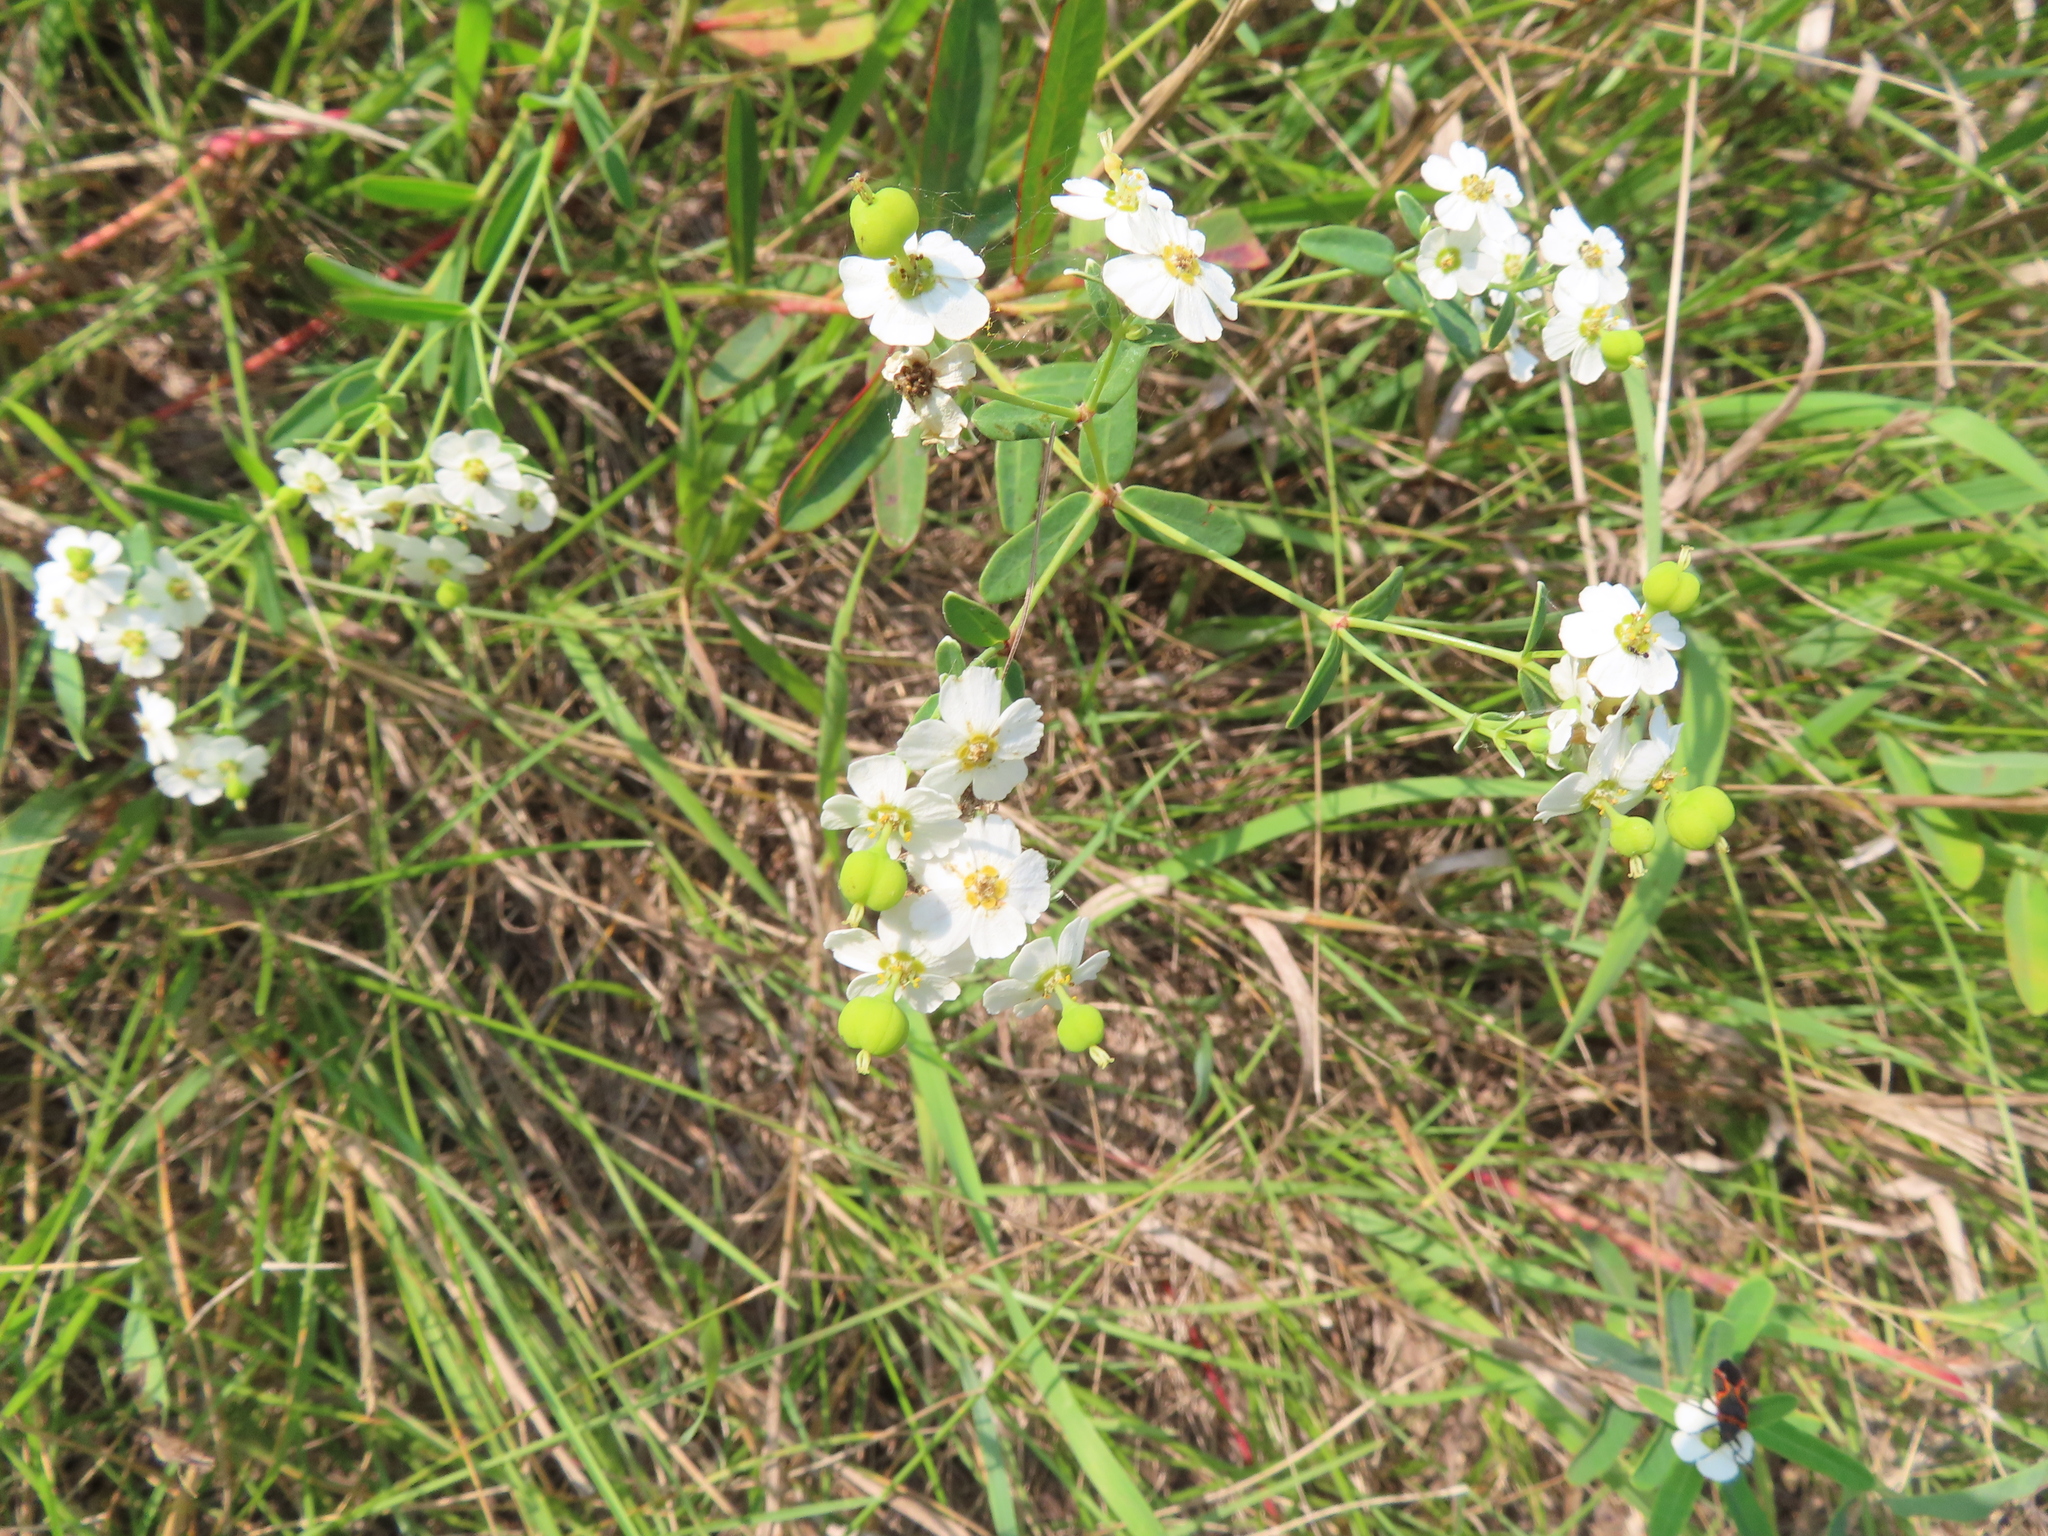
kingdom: Plantae
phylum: Tracheophyta
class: Magnoliopsida
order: Malpighiales
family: Euphorbiaceae
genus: Euphorbia
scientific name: Euphorbia corollata
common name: Flowering spurge
